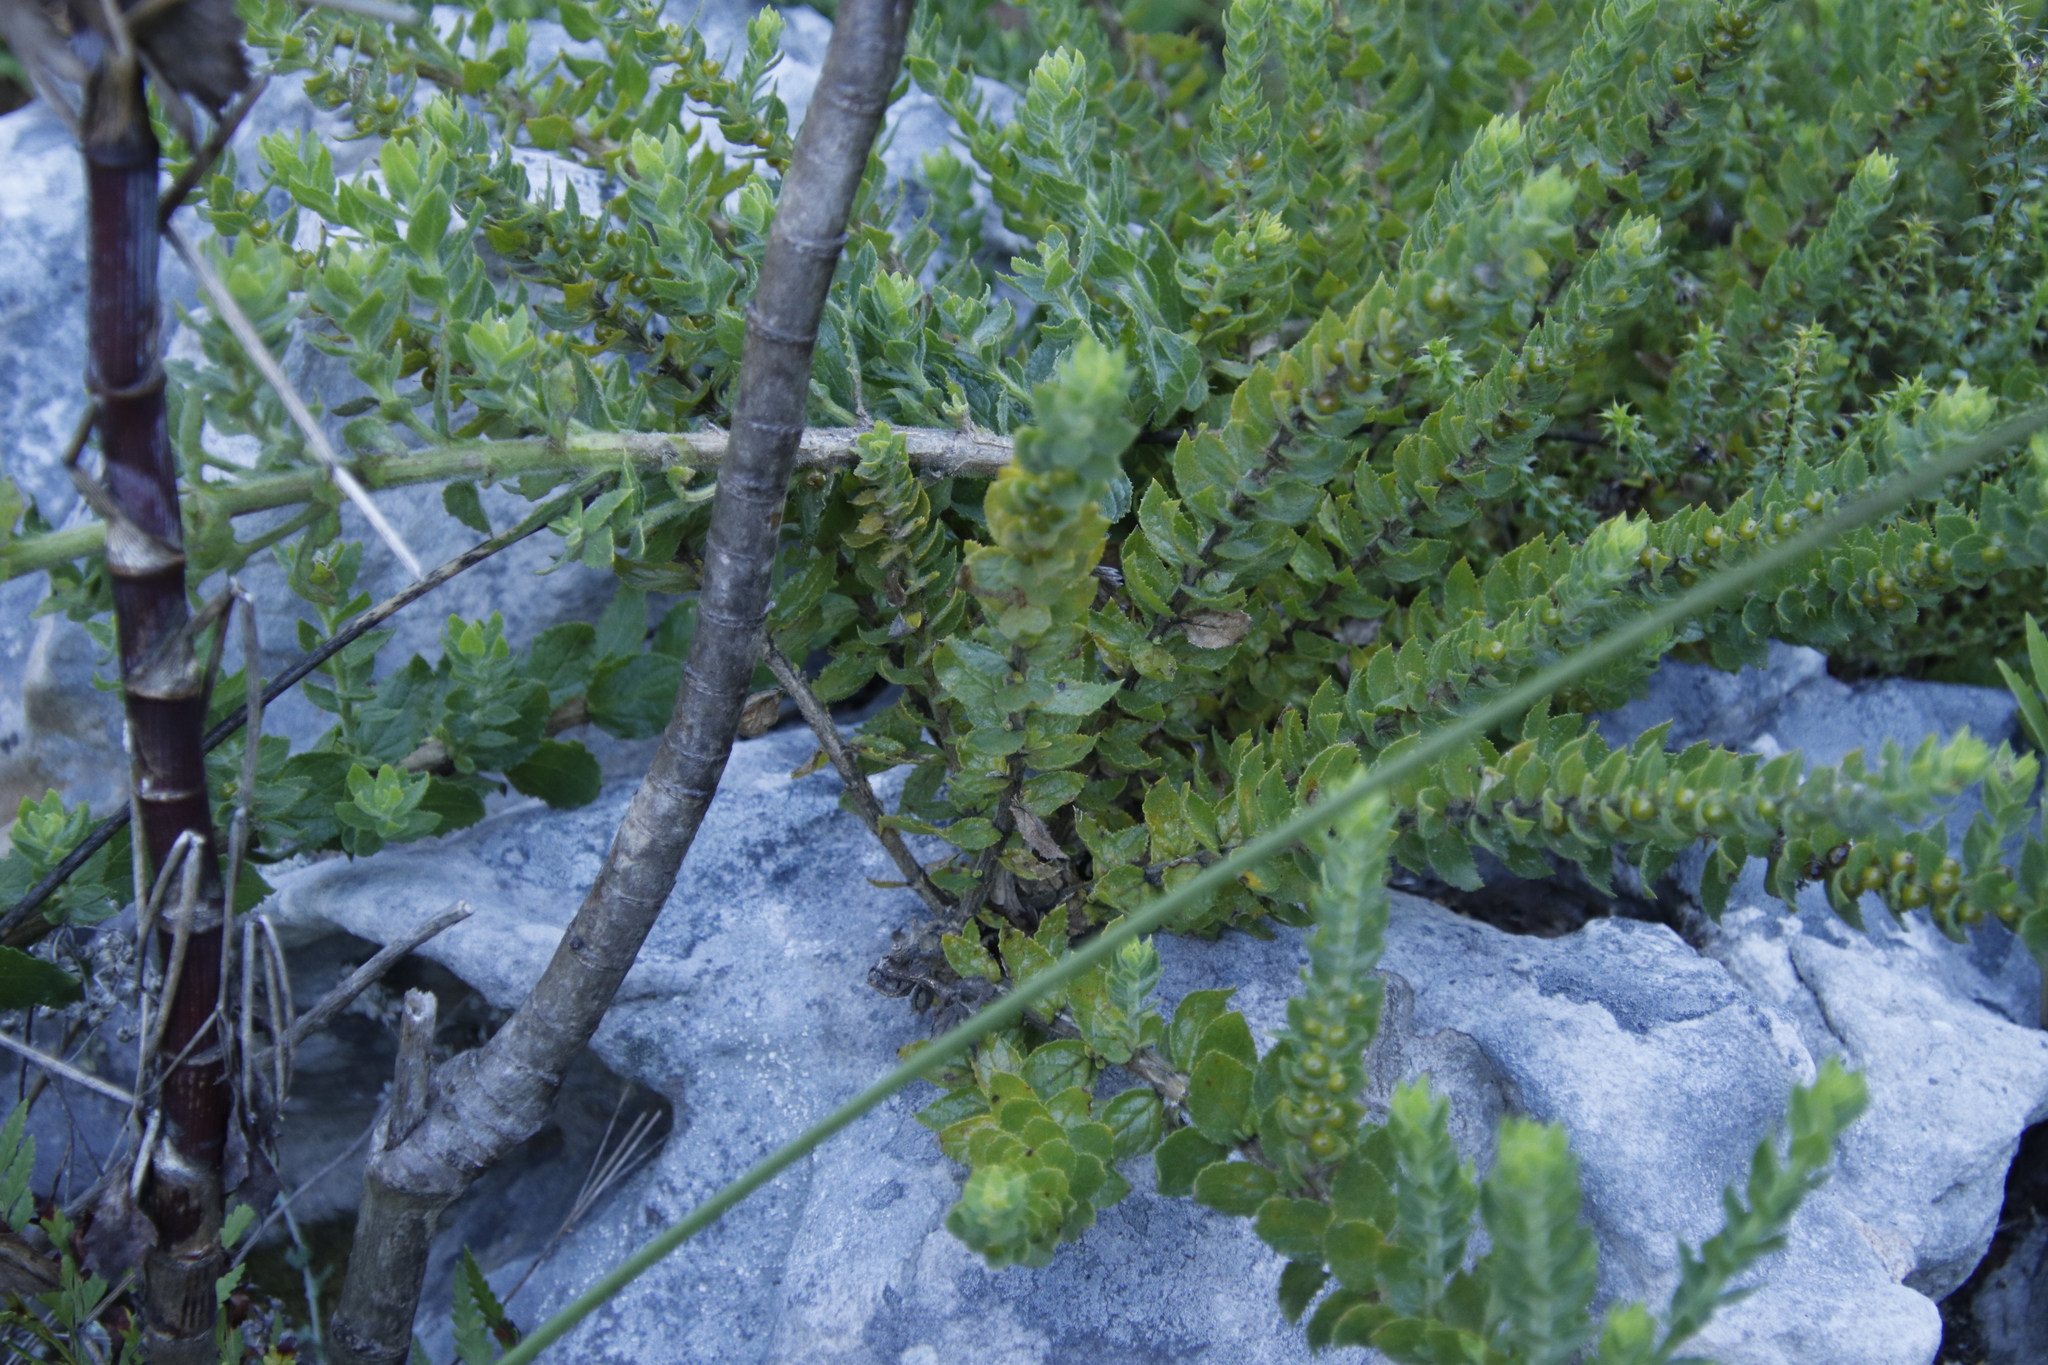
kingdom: Plantae
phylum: Tracheophyta
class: Magnoliopsida
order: Lamiales
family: Scrophulariaceae
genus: Oftia
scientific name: Oftia africana
